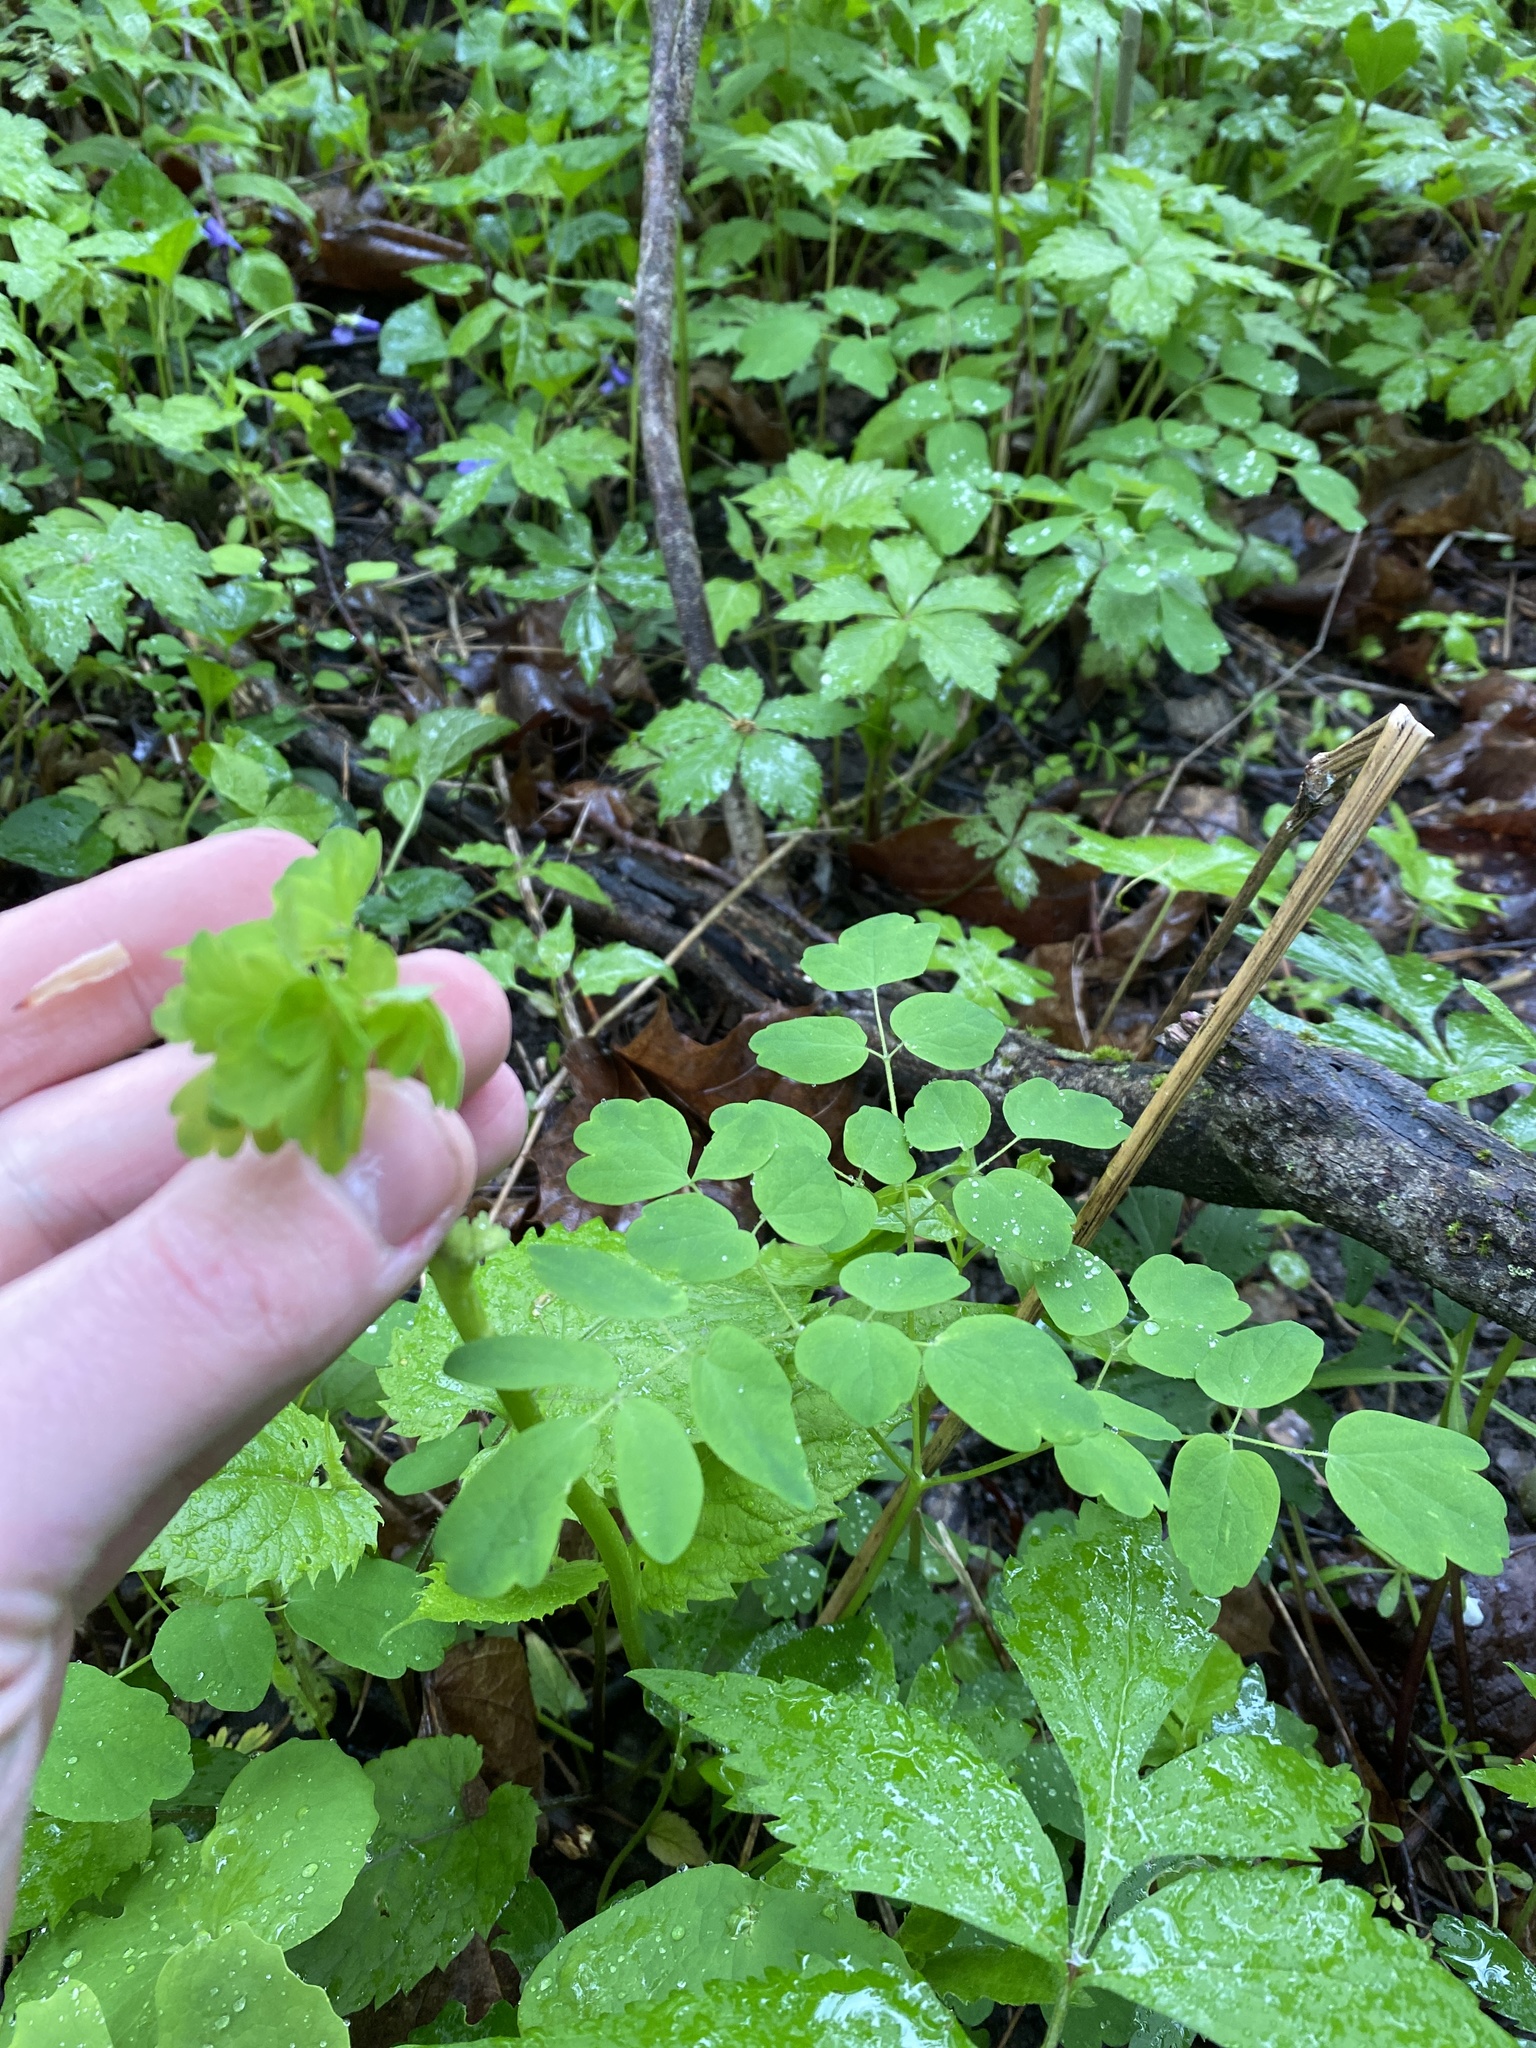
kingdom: Plantae
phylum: Tracheophyta
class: Magnoliopsida
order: Ranunculales
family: Ranunculaceae
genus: Thalictrum
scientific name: Thalictrum pubescens
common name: King-of-the-meadow
